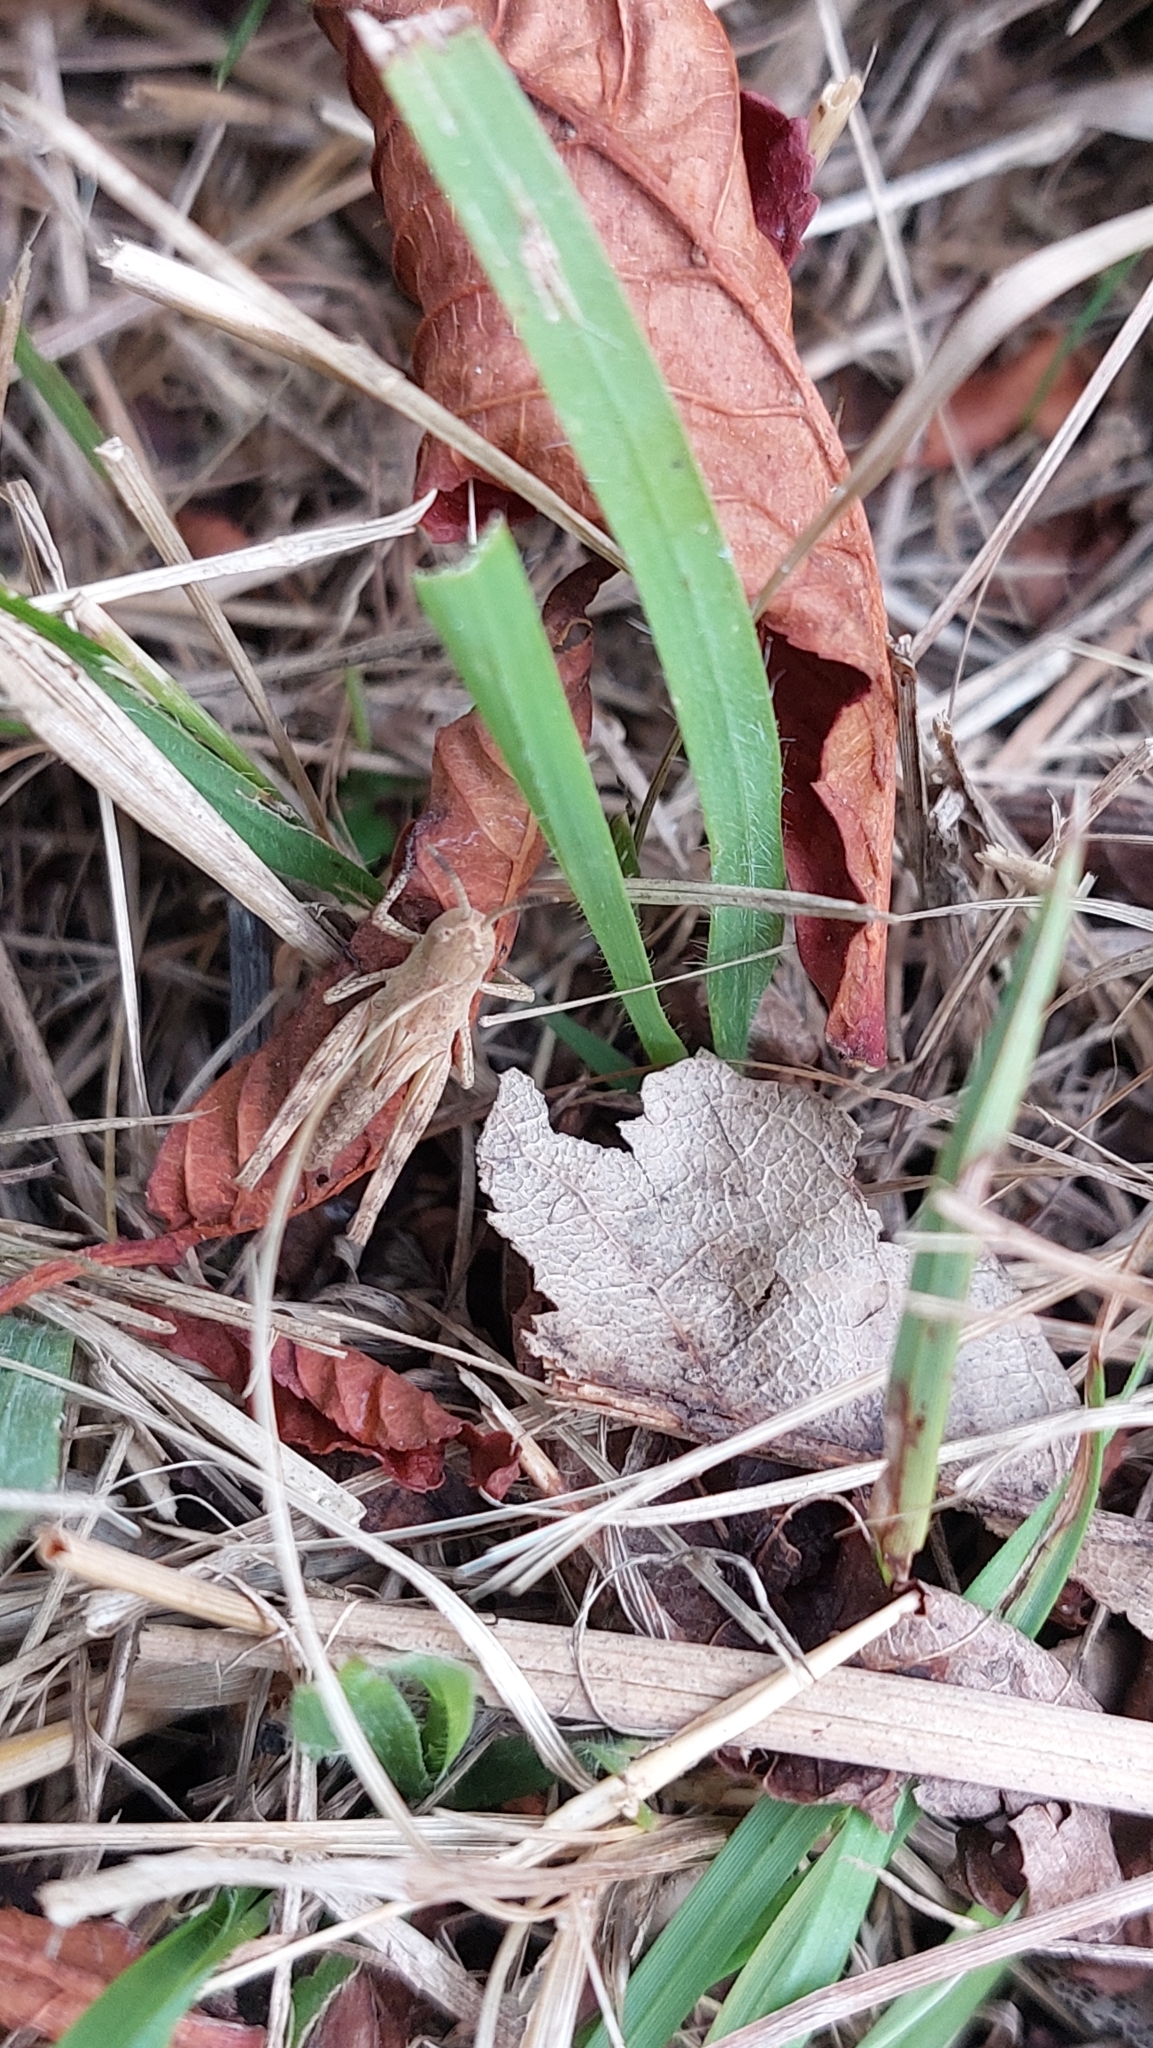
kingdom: Animalia
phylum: Arthropoda
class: Insecta
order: Orthoptera
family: Acrididae
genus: Gomphocerippus
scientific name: Gomphocerippus rufus
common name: Rufous grasshopper
